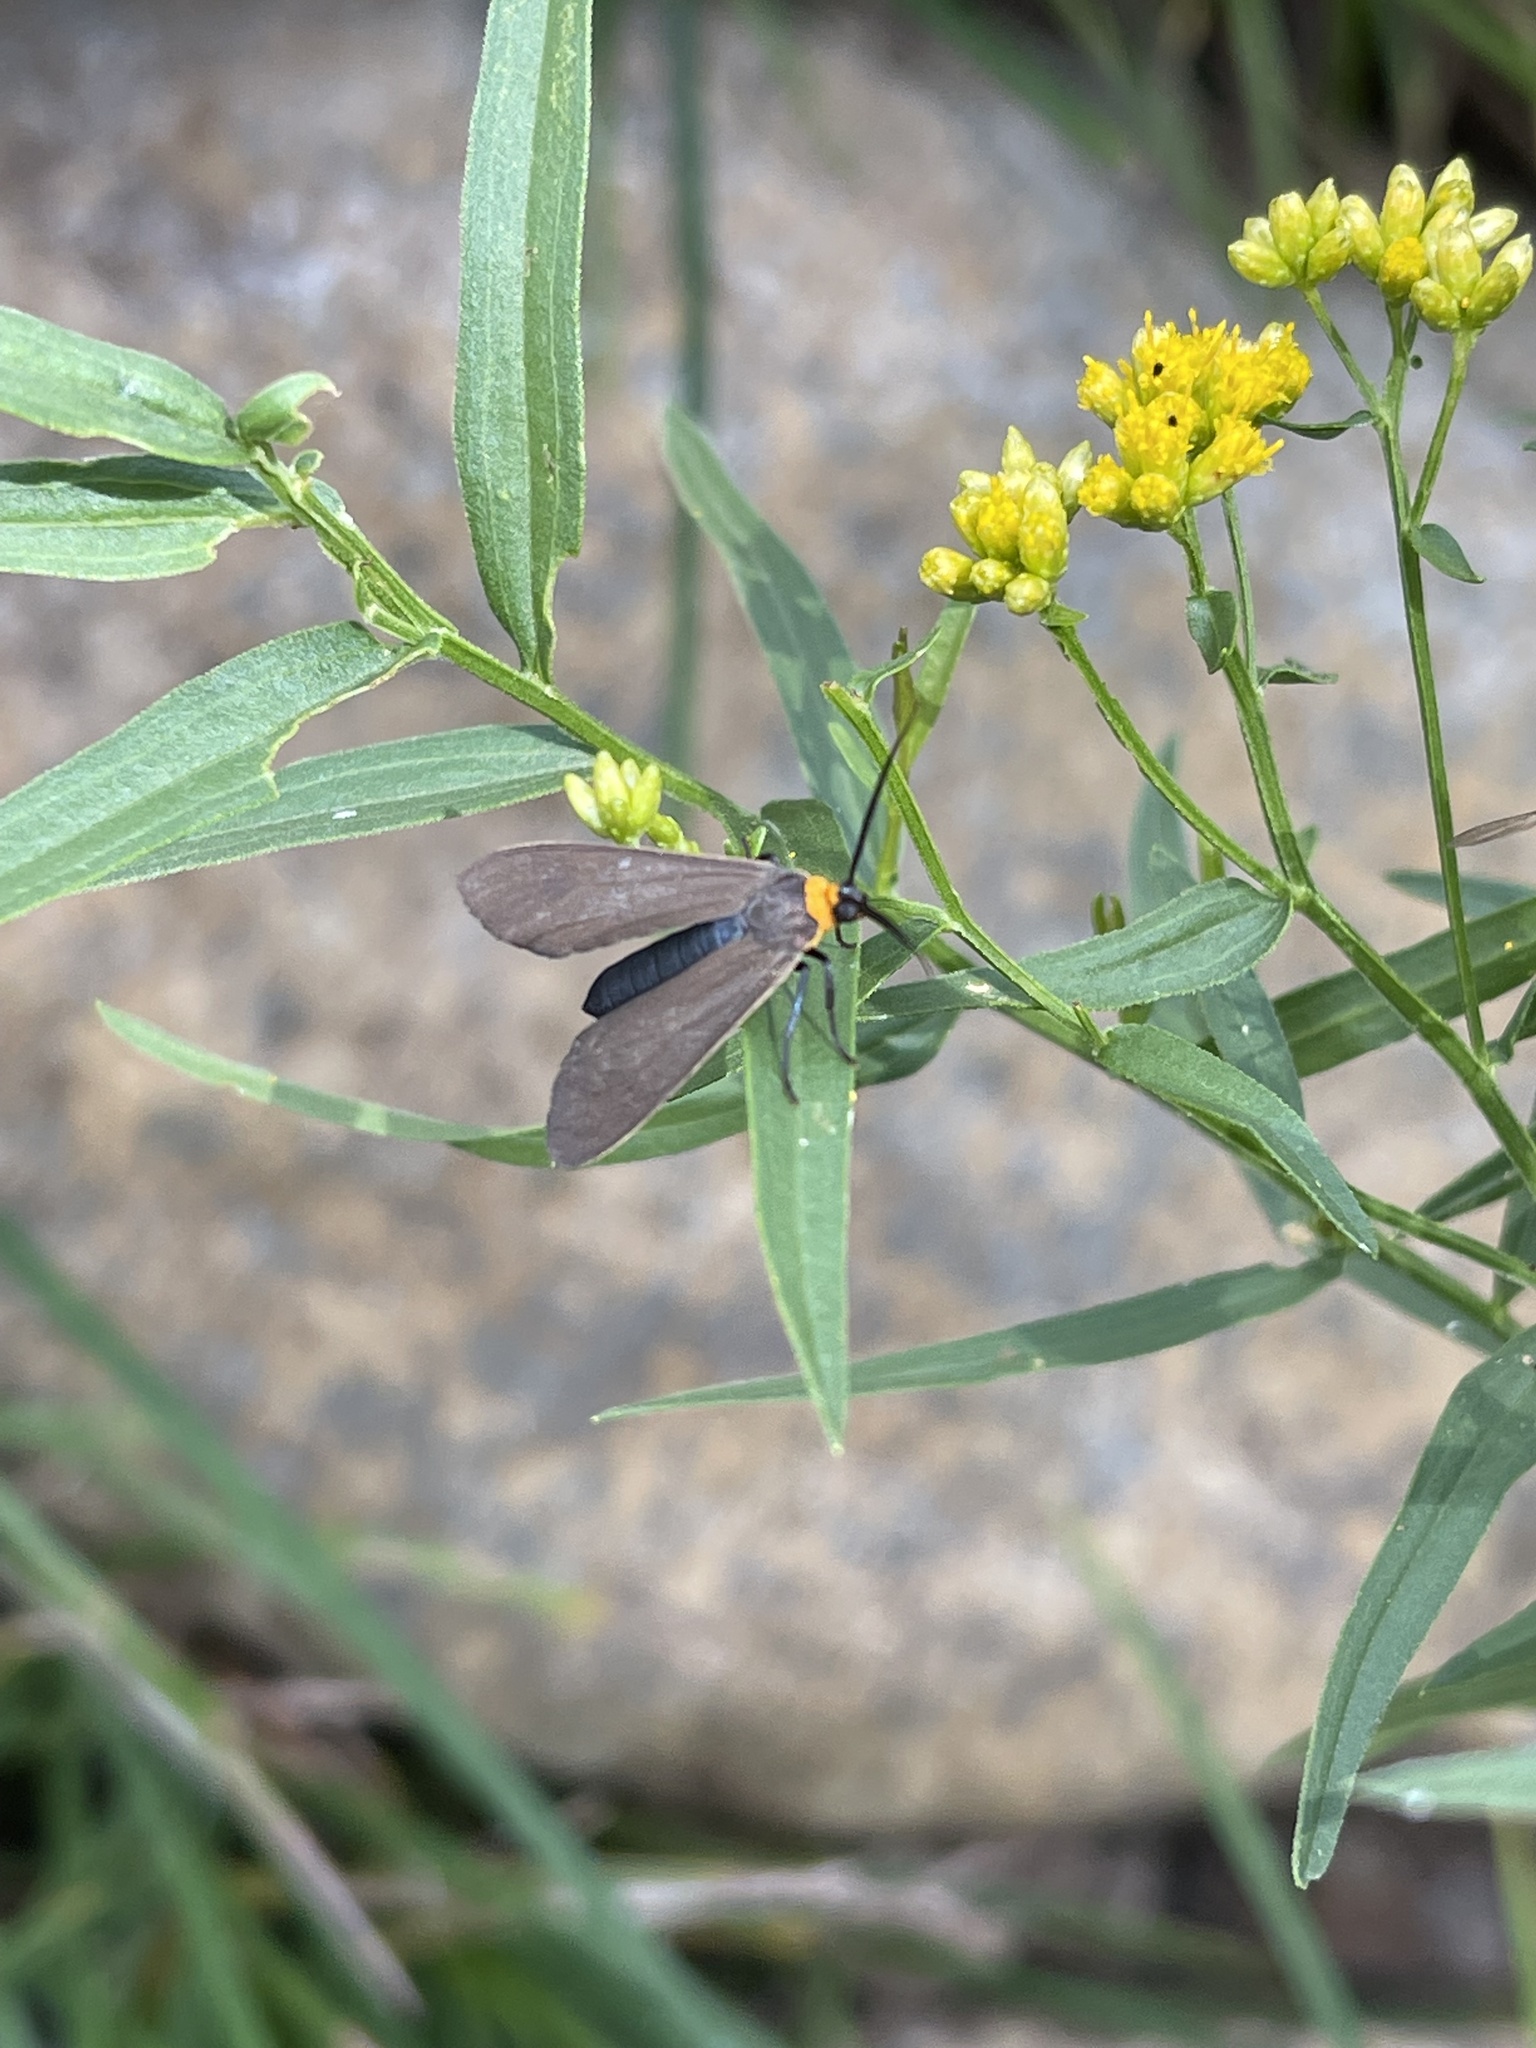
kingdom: Animalia
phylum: Arthropoda
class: Insecta
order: Lepidoptera
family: Erebidae
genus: Cisseps
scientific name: Cisseps fulvicollis
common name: Yellow-collared scape moth
